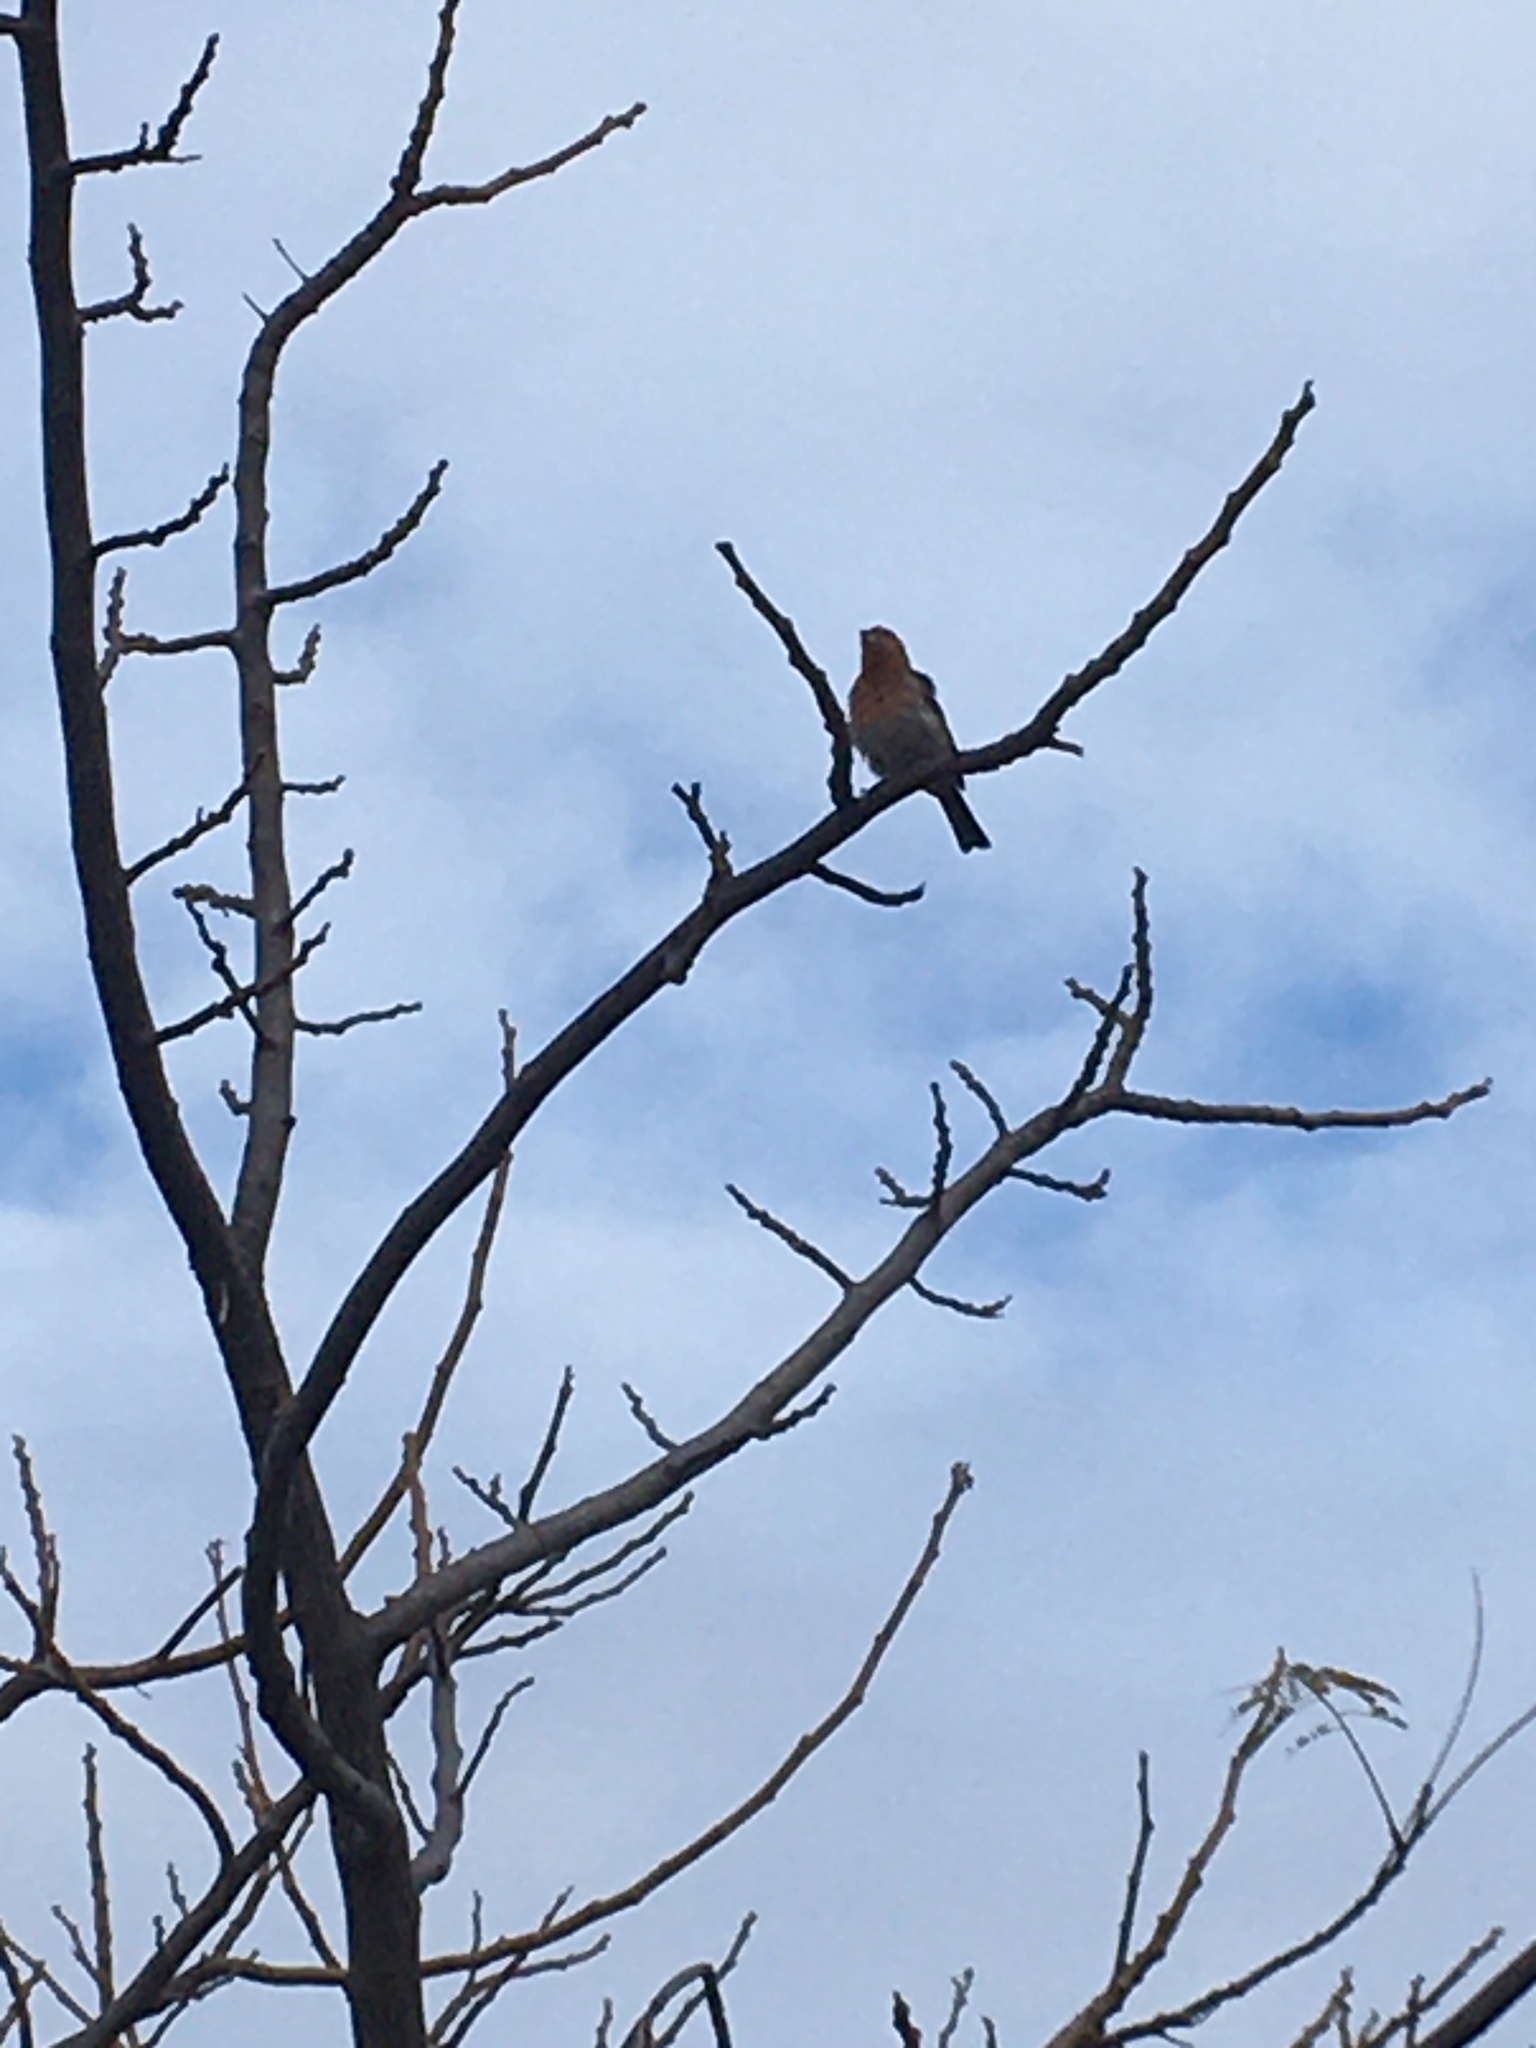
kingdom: Animalia
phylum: Chordata
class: Aves
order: Passeriformes
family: Fringillidae
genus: Haemorhous
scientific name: Haemorhous mexicanus
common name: House finch
